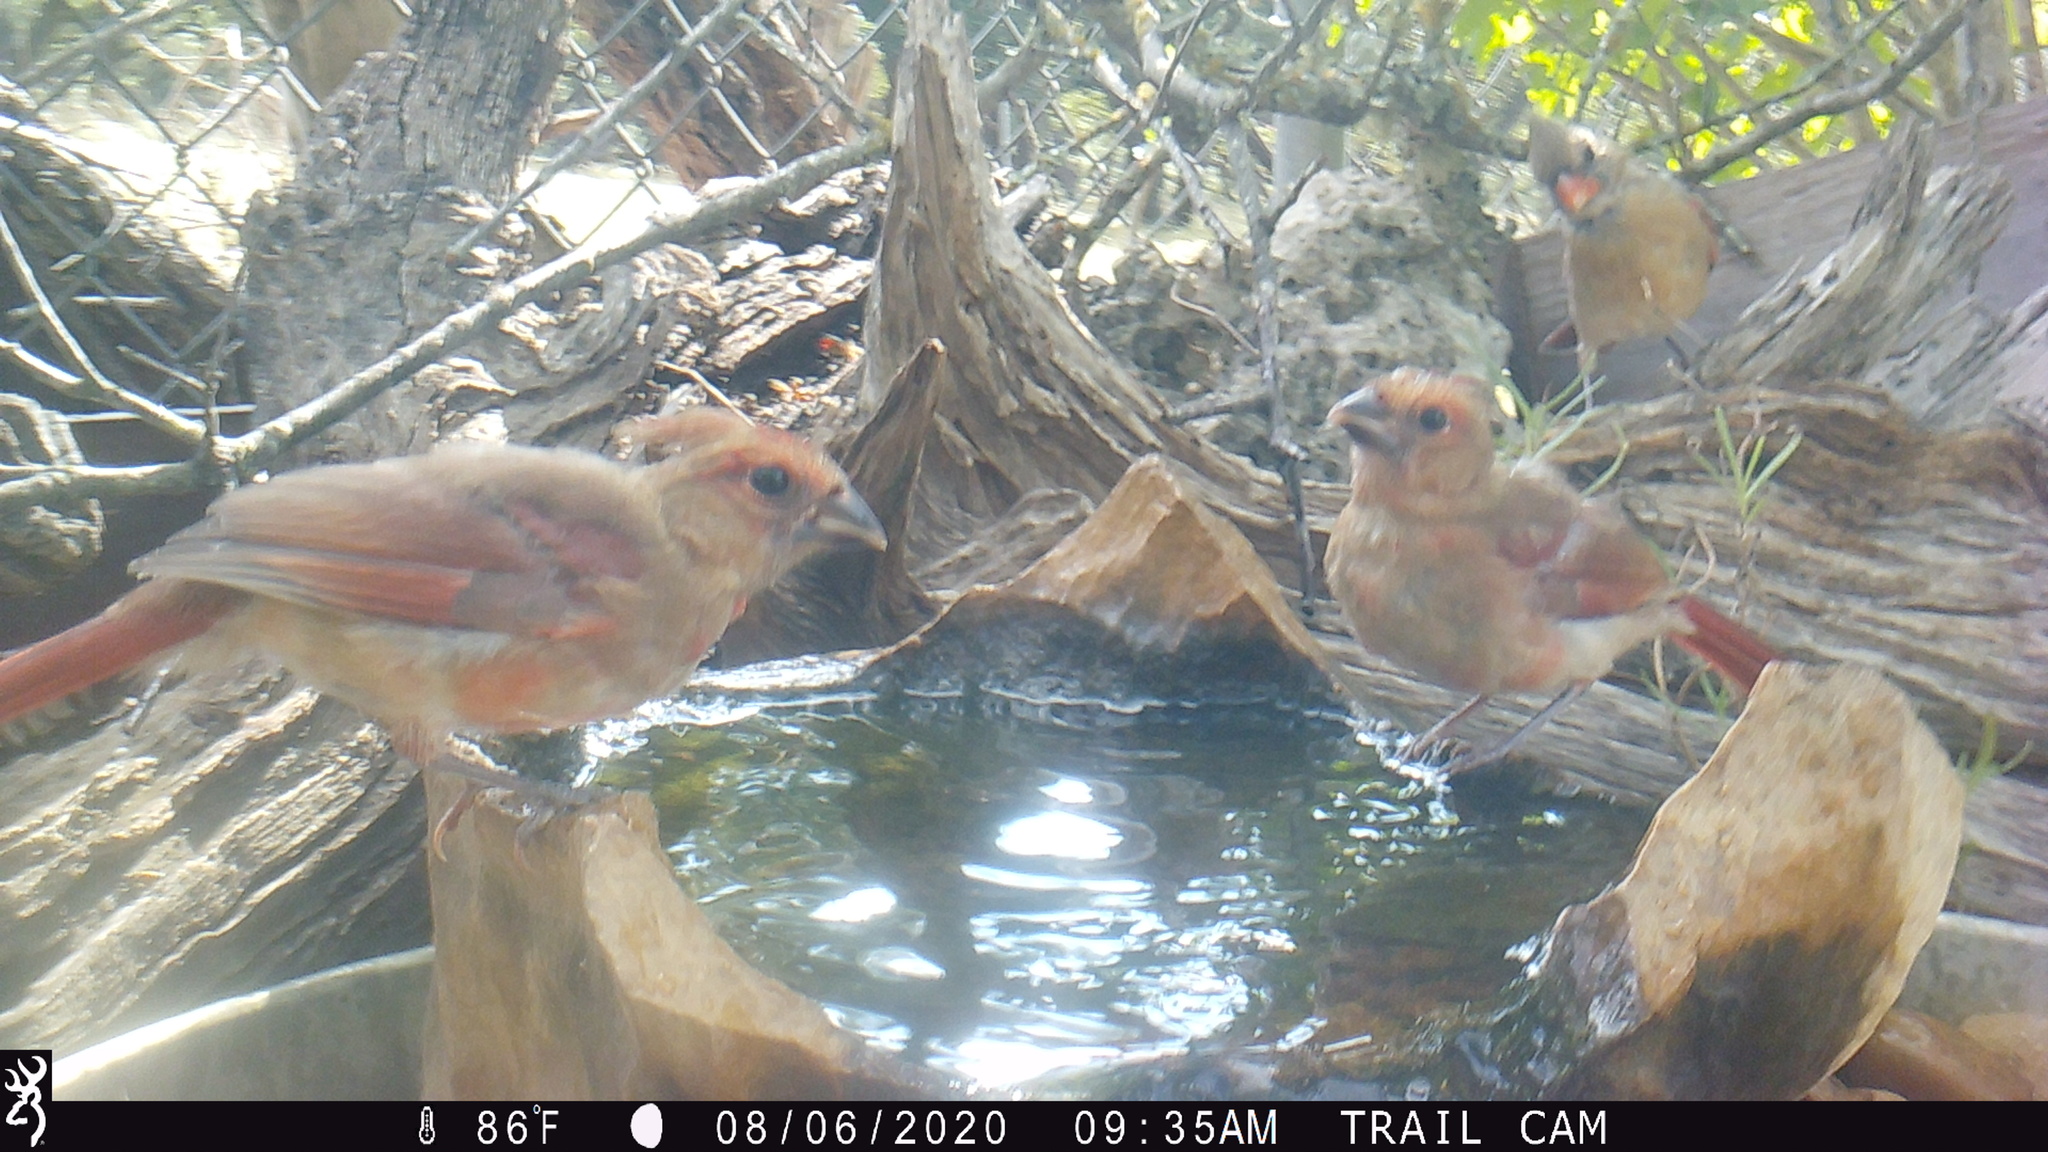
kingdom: Animalia
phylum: Chordata
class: Aves
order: Passeriformes
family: Cardinalidae
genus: Cardinalis
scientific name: Cardinalis cardinalis
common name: Northern cardinal
